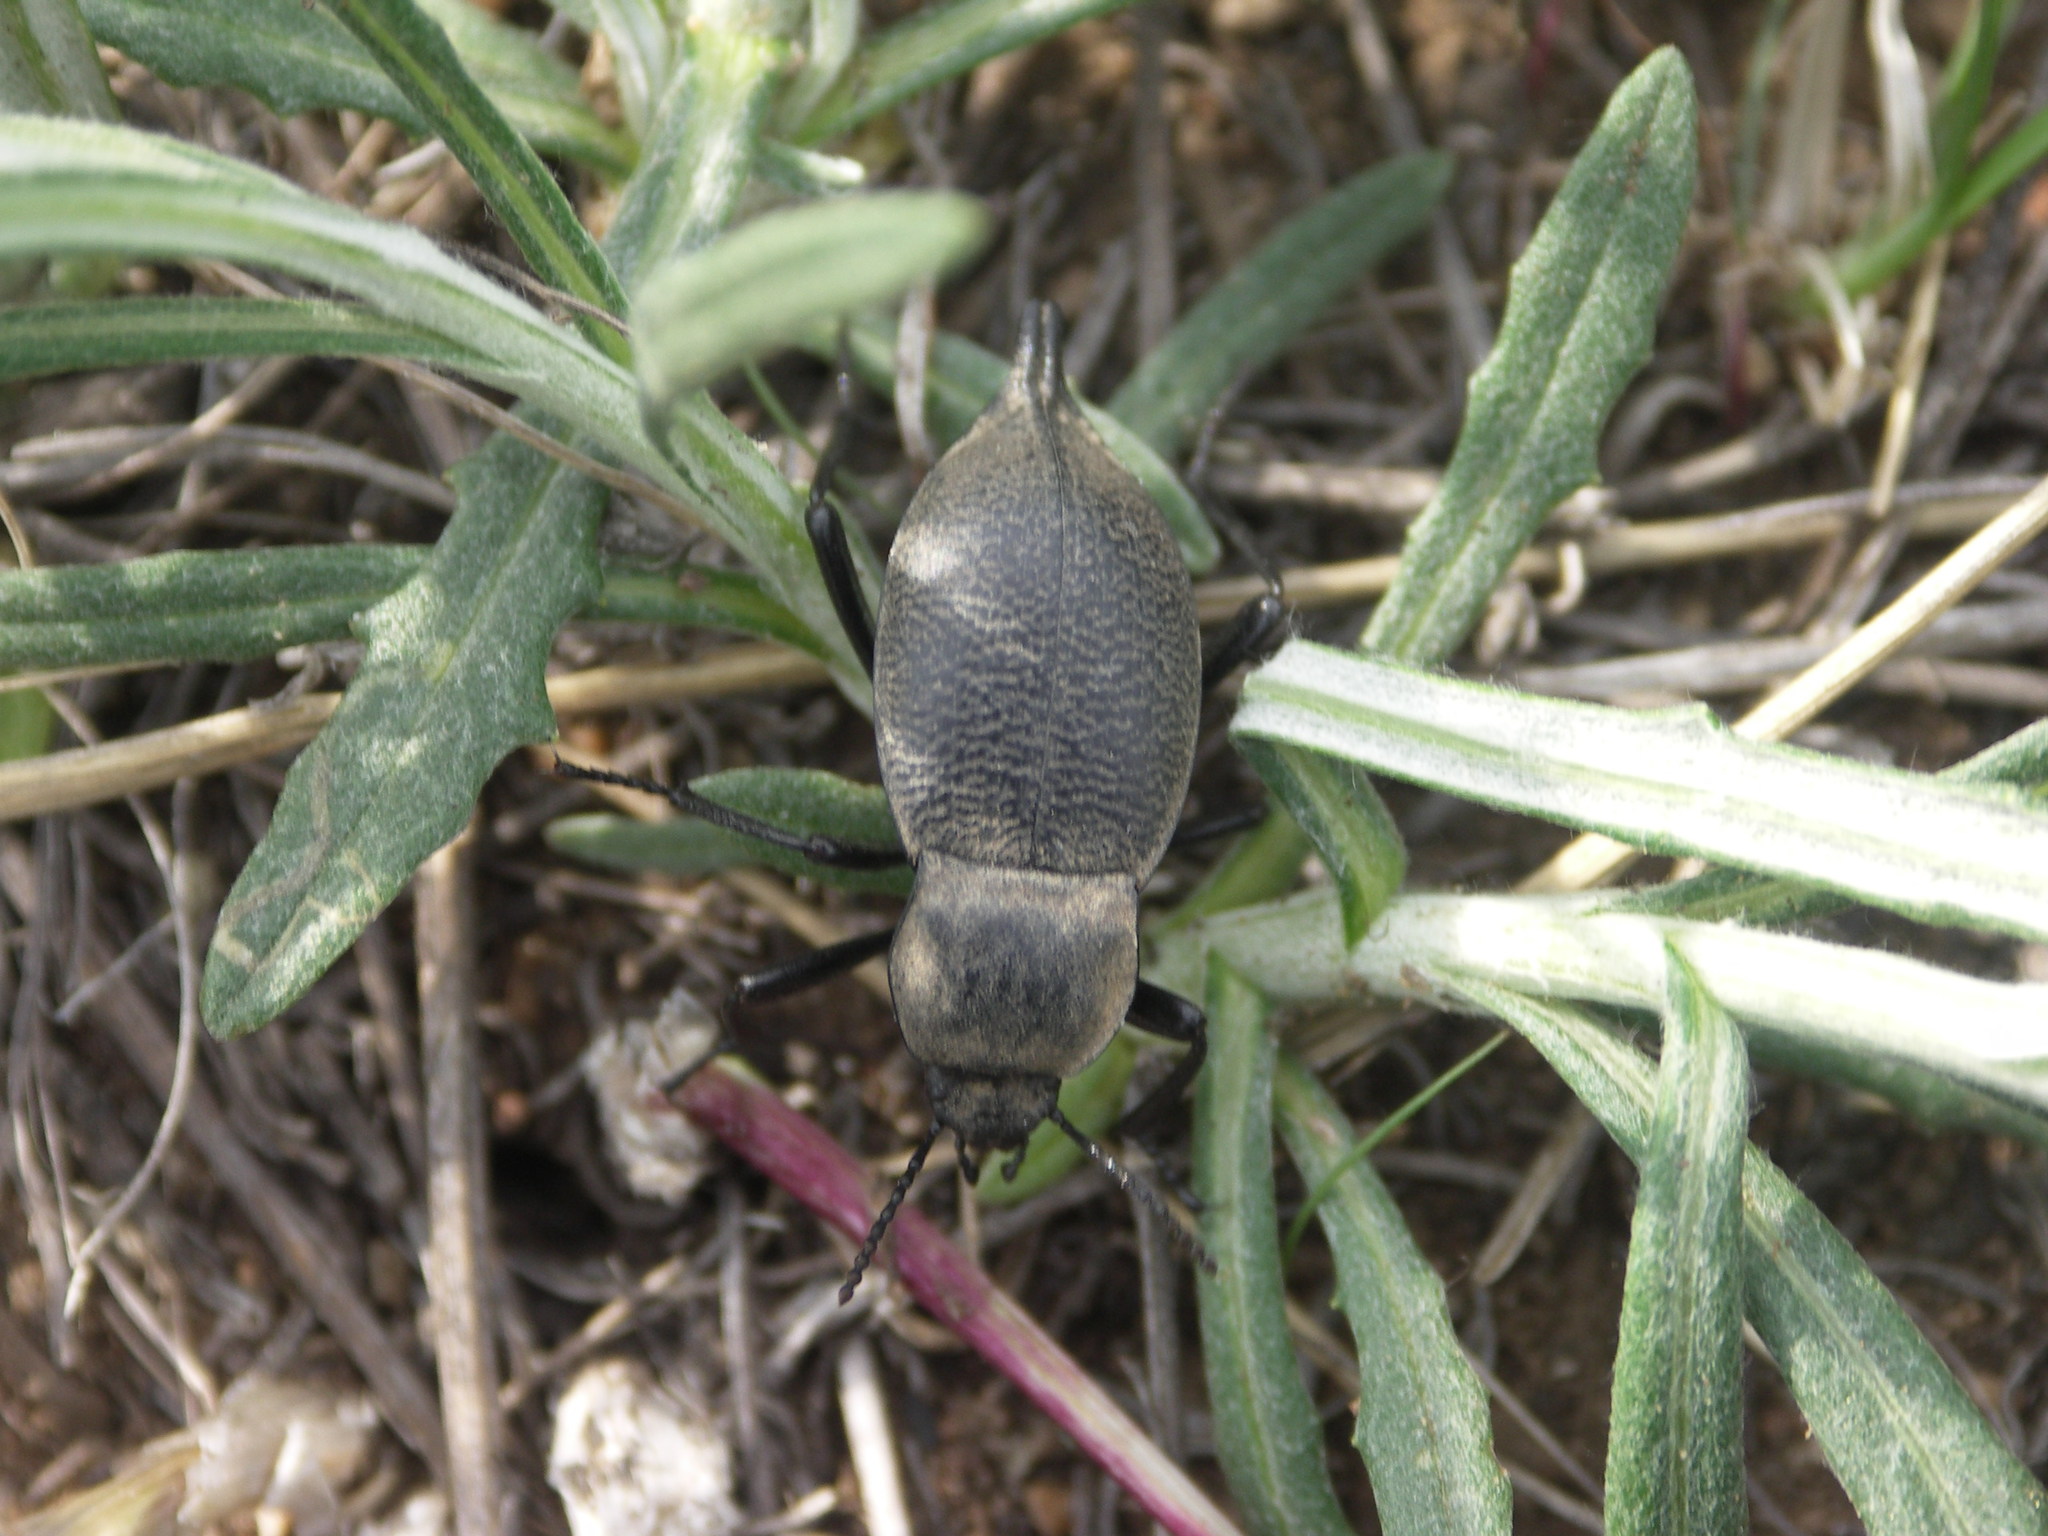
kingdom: Animalia
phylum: Arthropoda
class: Insecta
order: Coleoptera
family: Tenebrionidae
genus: Blaps
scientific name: Blaps
